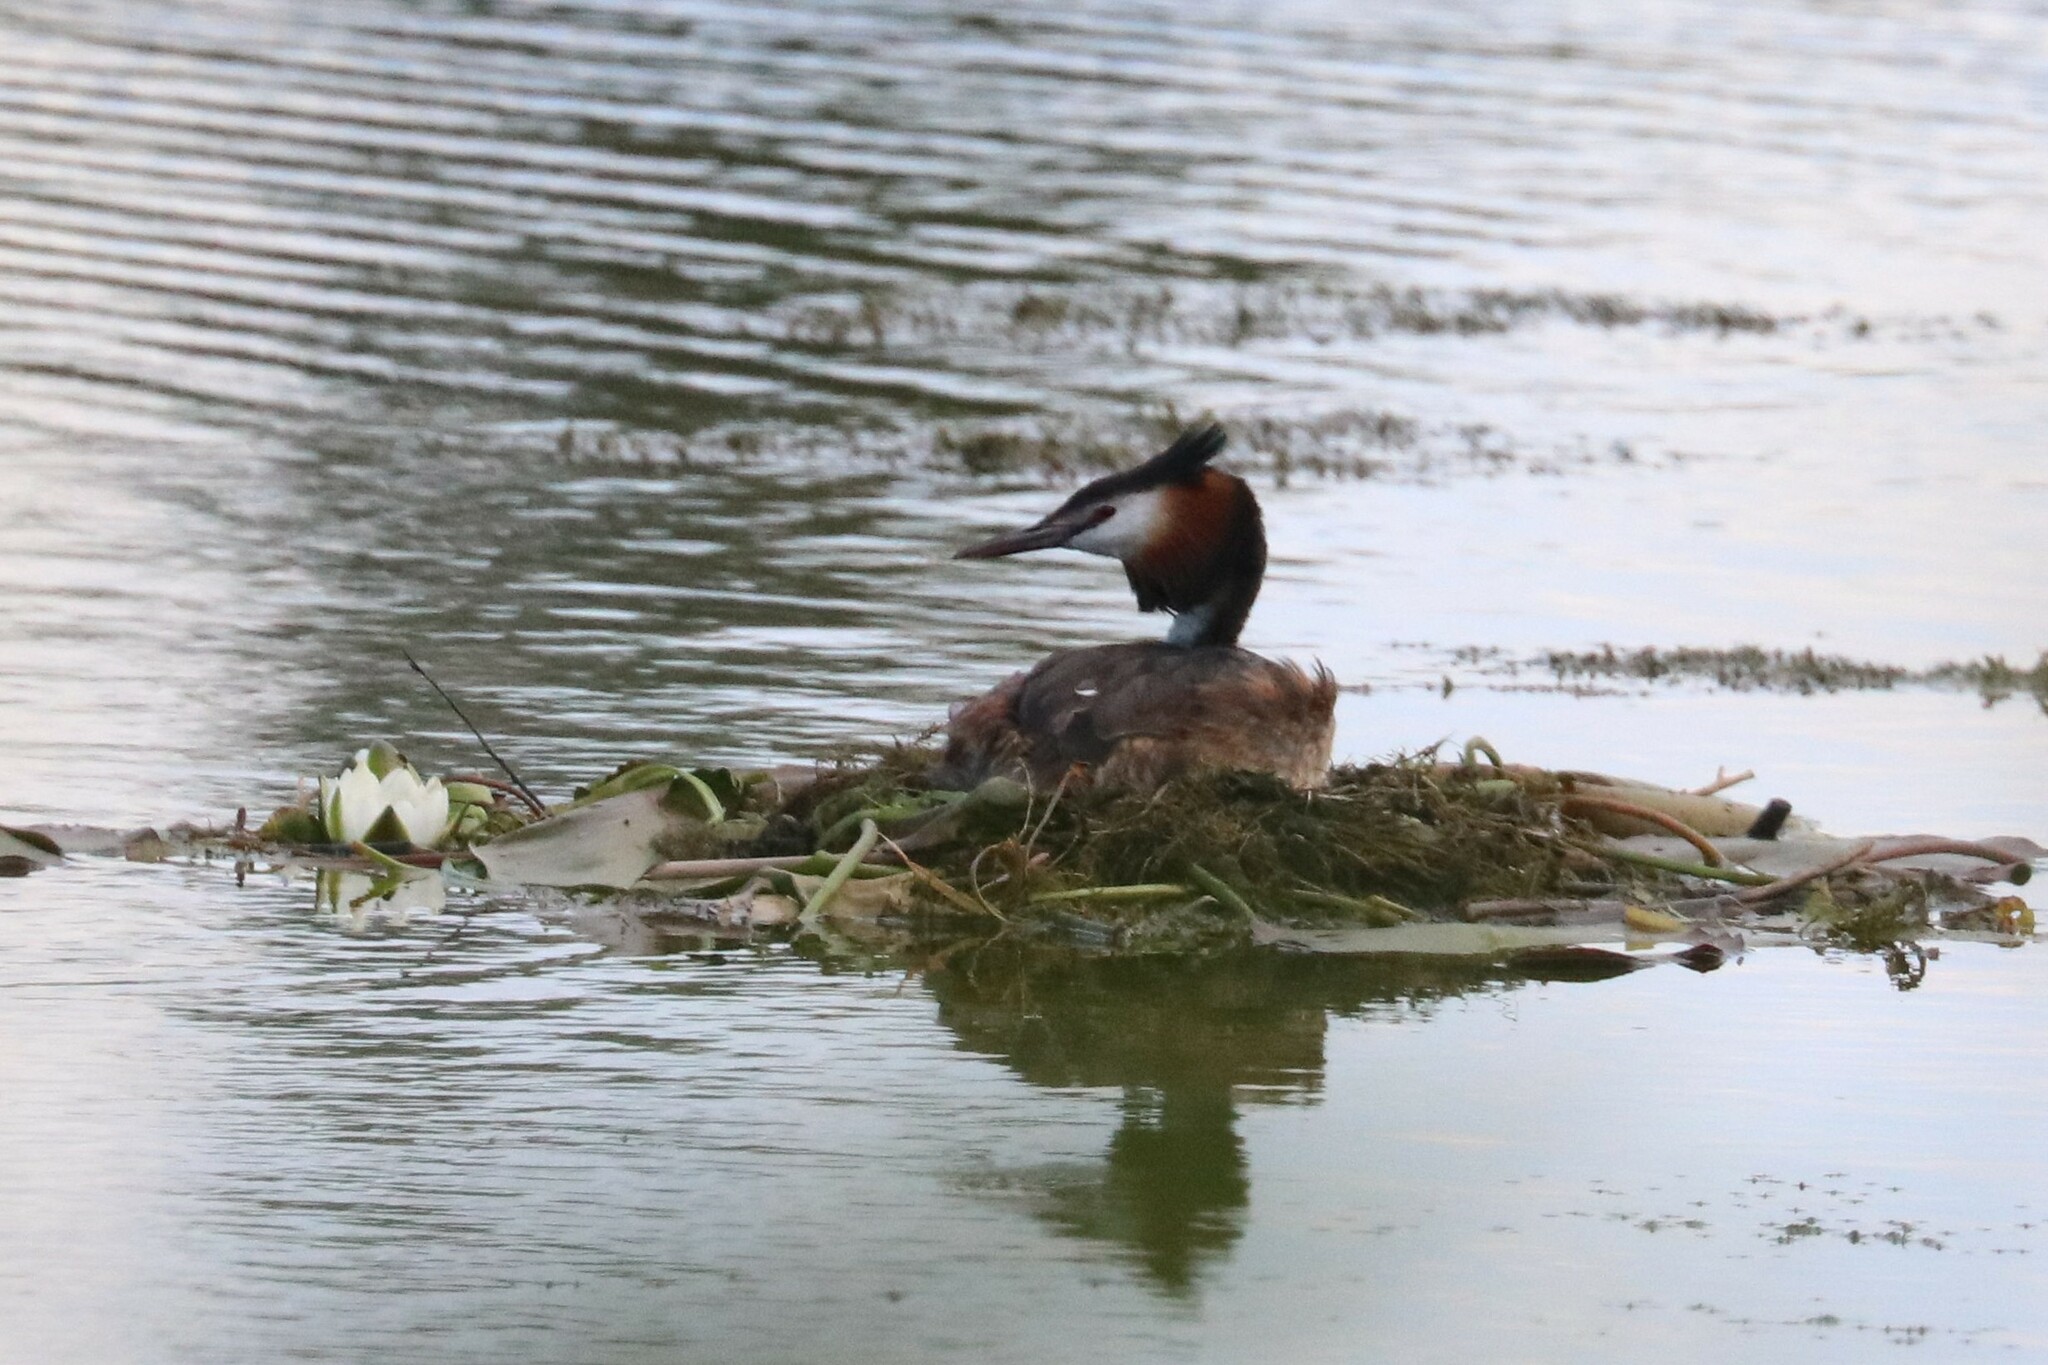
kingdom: Animalia
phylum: Chordata
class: Aves
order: Podicipediformes
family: Podicipedidae
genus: Podiceps
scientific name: Podiceps cristatus
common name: Great crested grebe
